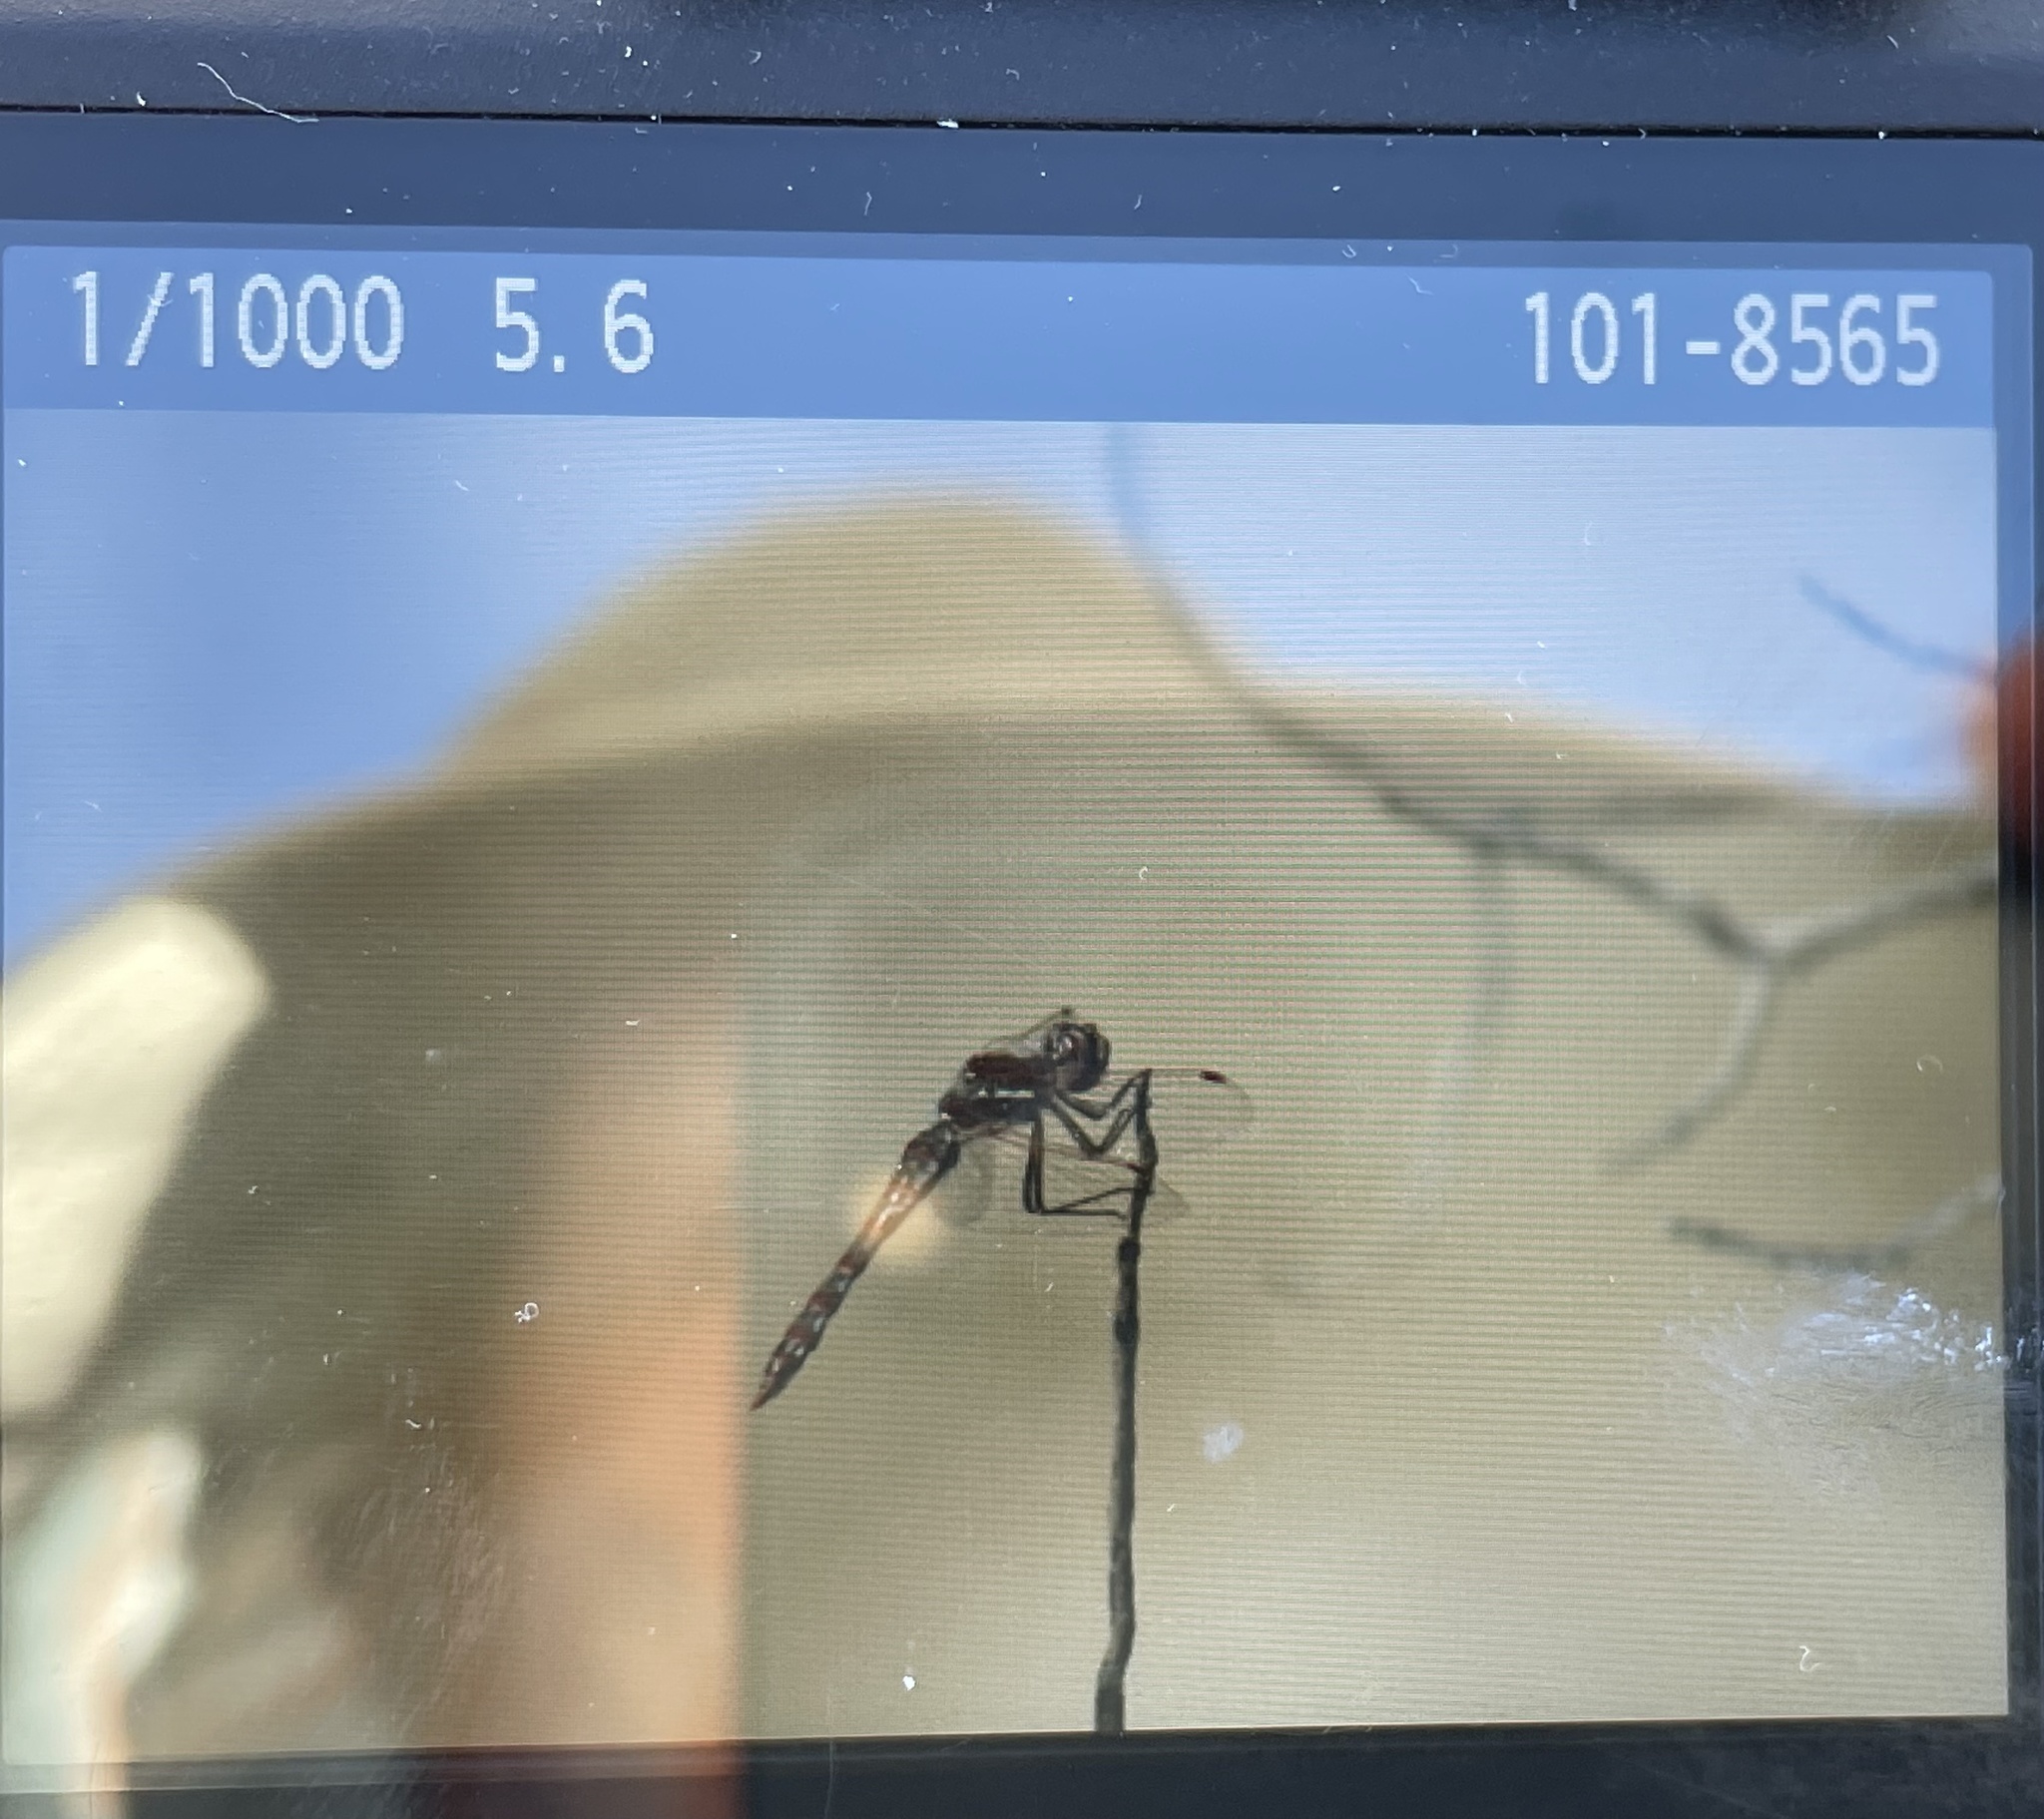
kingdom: Animalia
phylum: Arthropoda
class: Insecta
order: Odonata
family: Libellulidae
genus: Sympetrum
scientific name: Sympetrum corruptum
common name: Variegated meadowhawk
